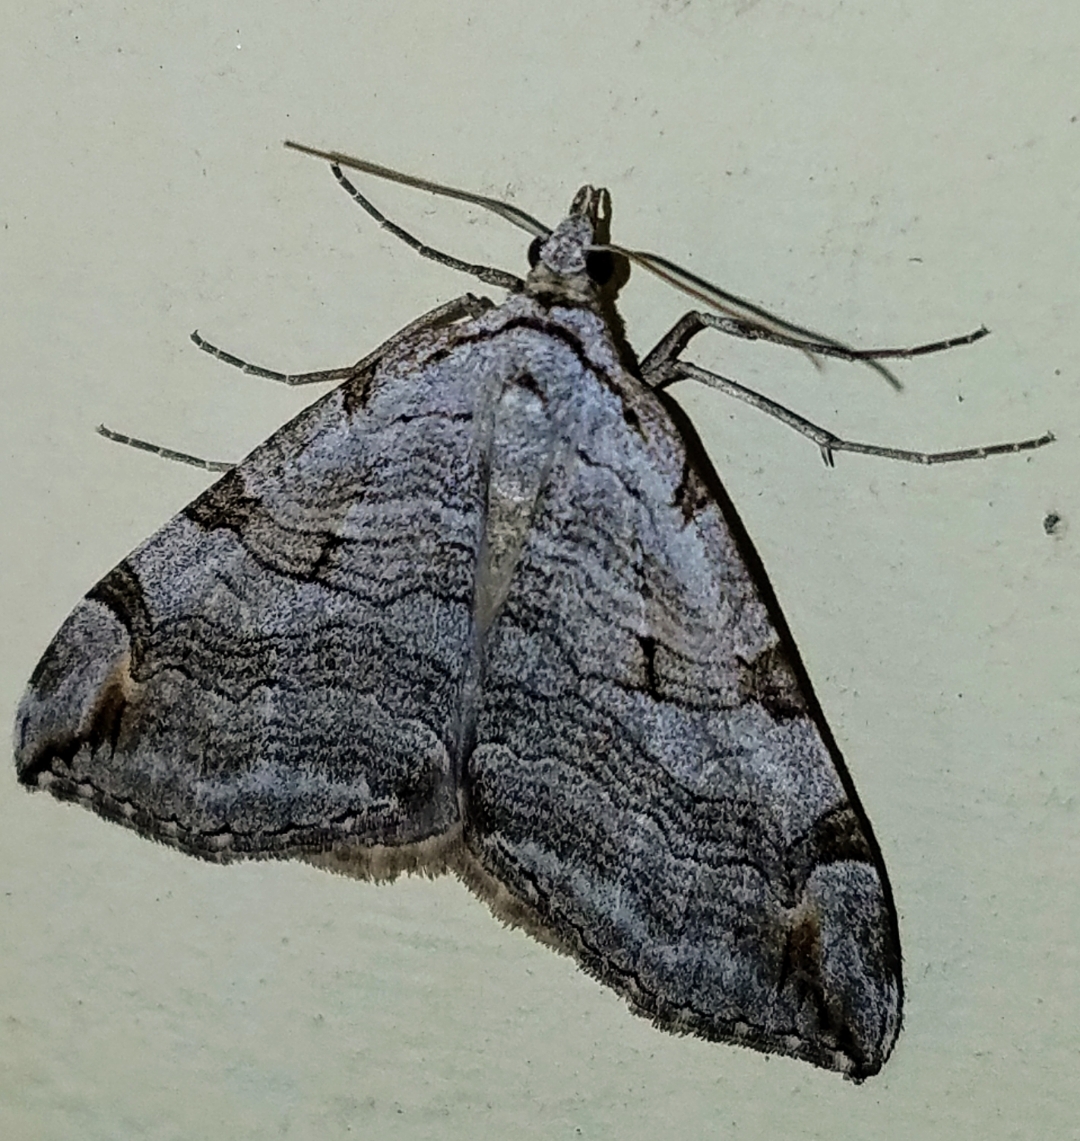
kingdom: Animalia
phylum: Arthropoda
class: Insecta
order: Lepidoptera
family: Geometridae
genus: Aplocera
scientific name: Aplocera plagiata
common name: Treble-bar
